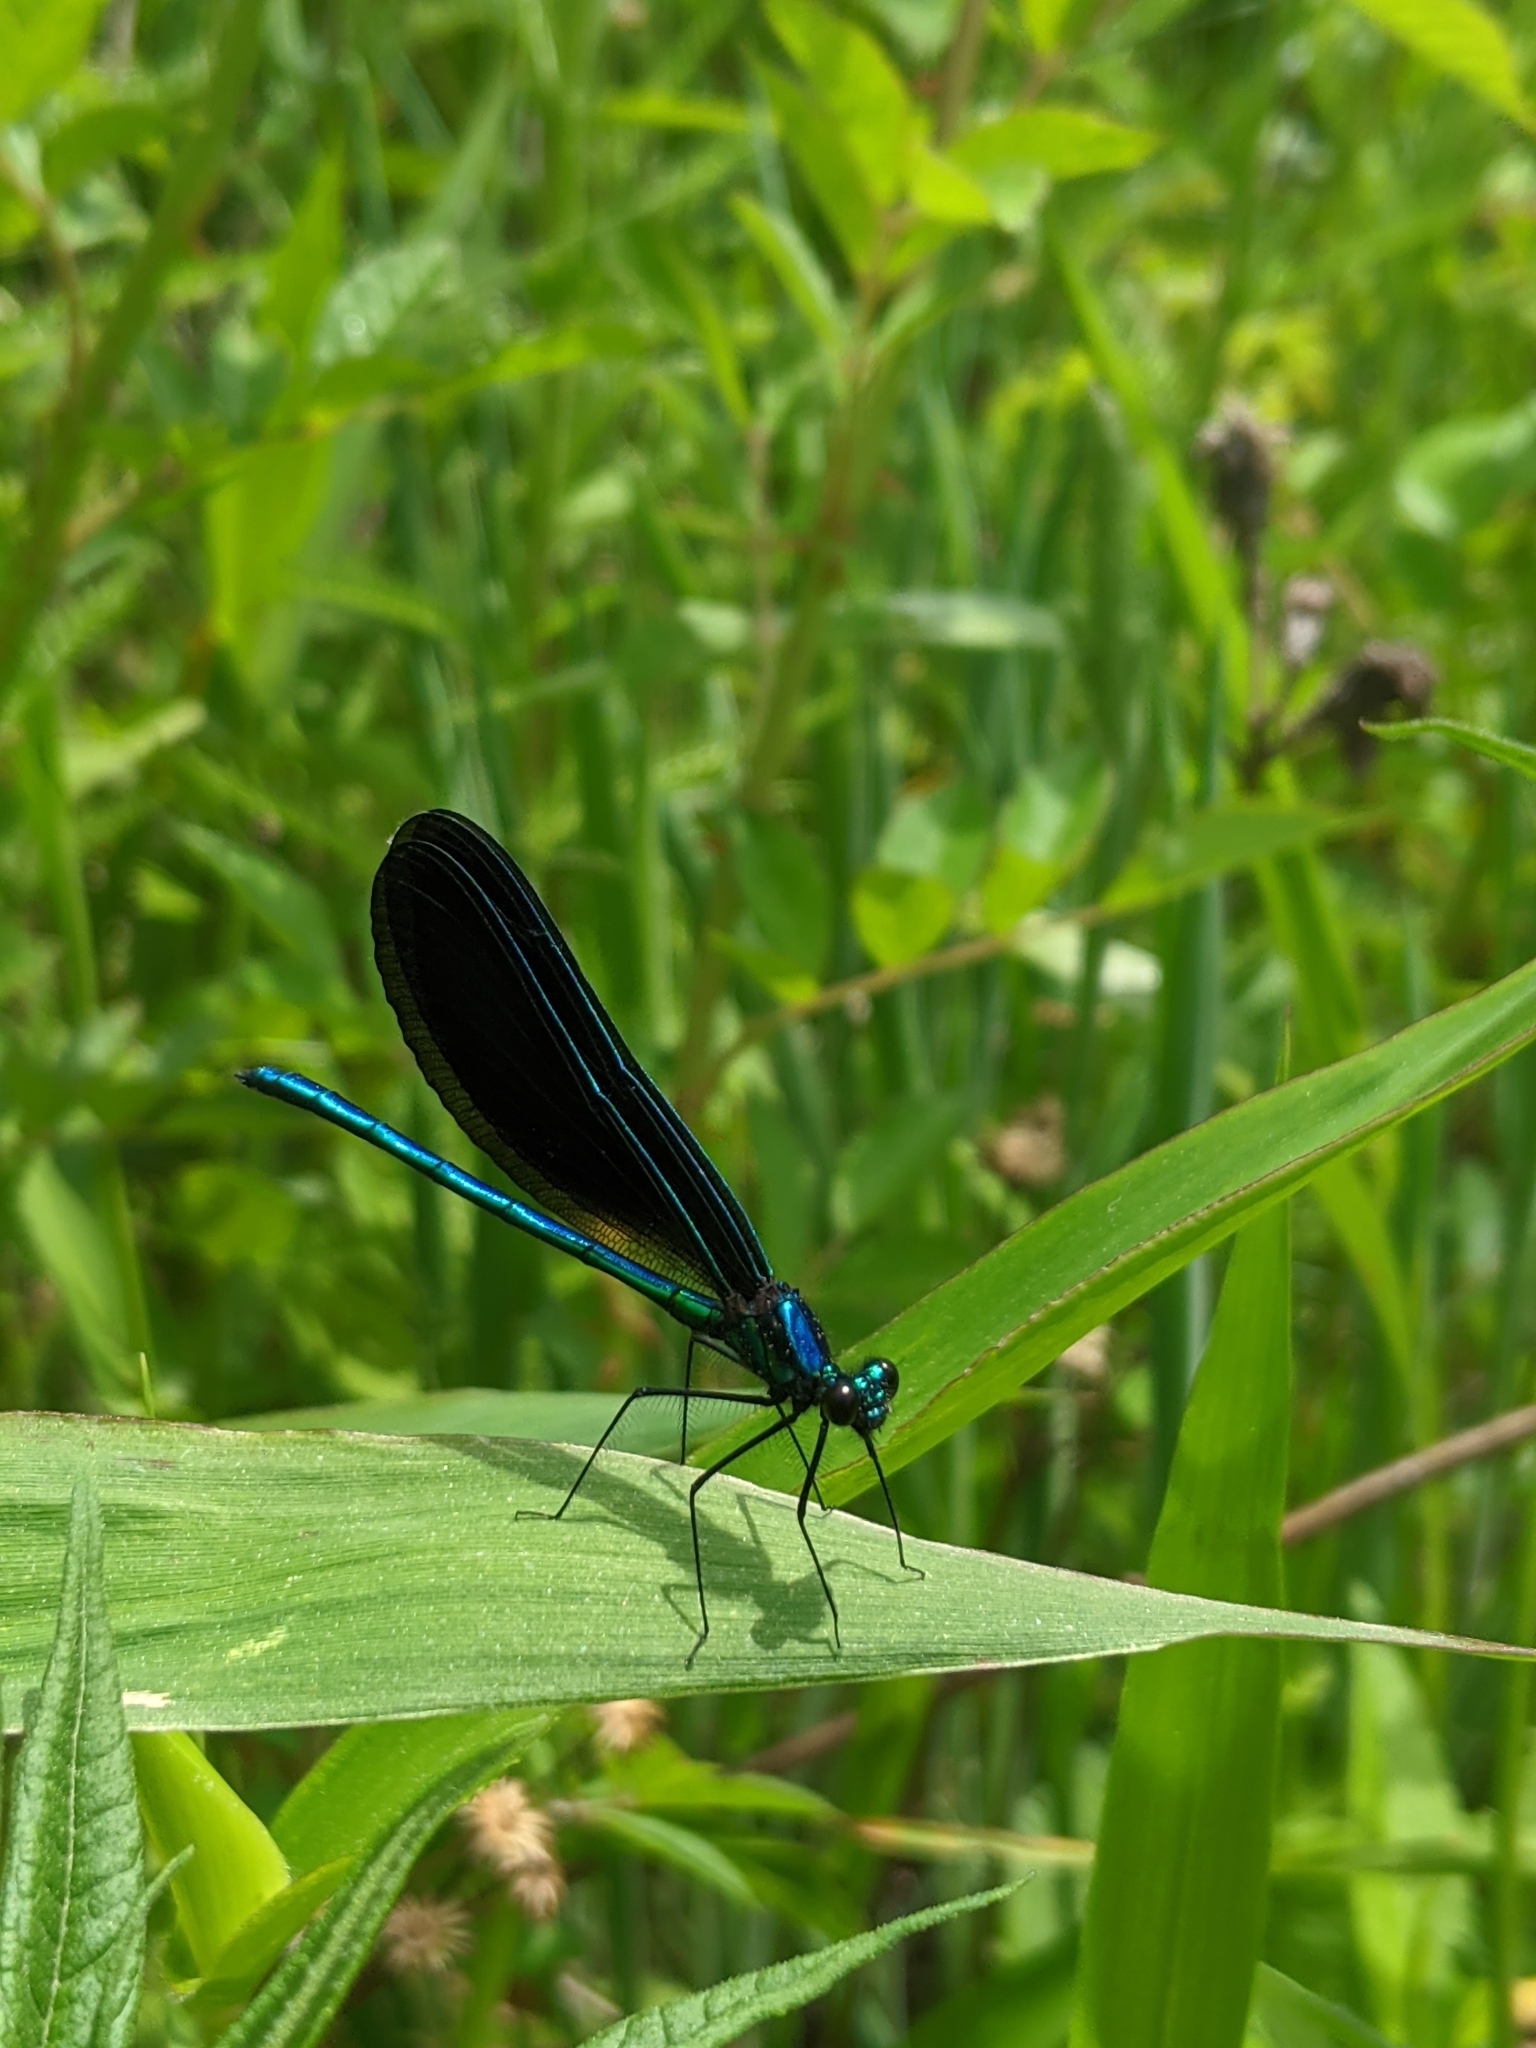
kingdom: Animalia
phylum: Arthropoda
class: Insecta
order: Odonata
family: Calopterygidae
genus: Calopteryx
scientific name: Calopteryx maculata
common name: Ebony jewelwing
